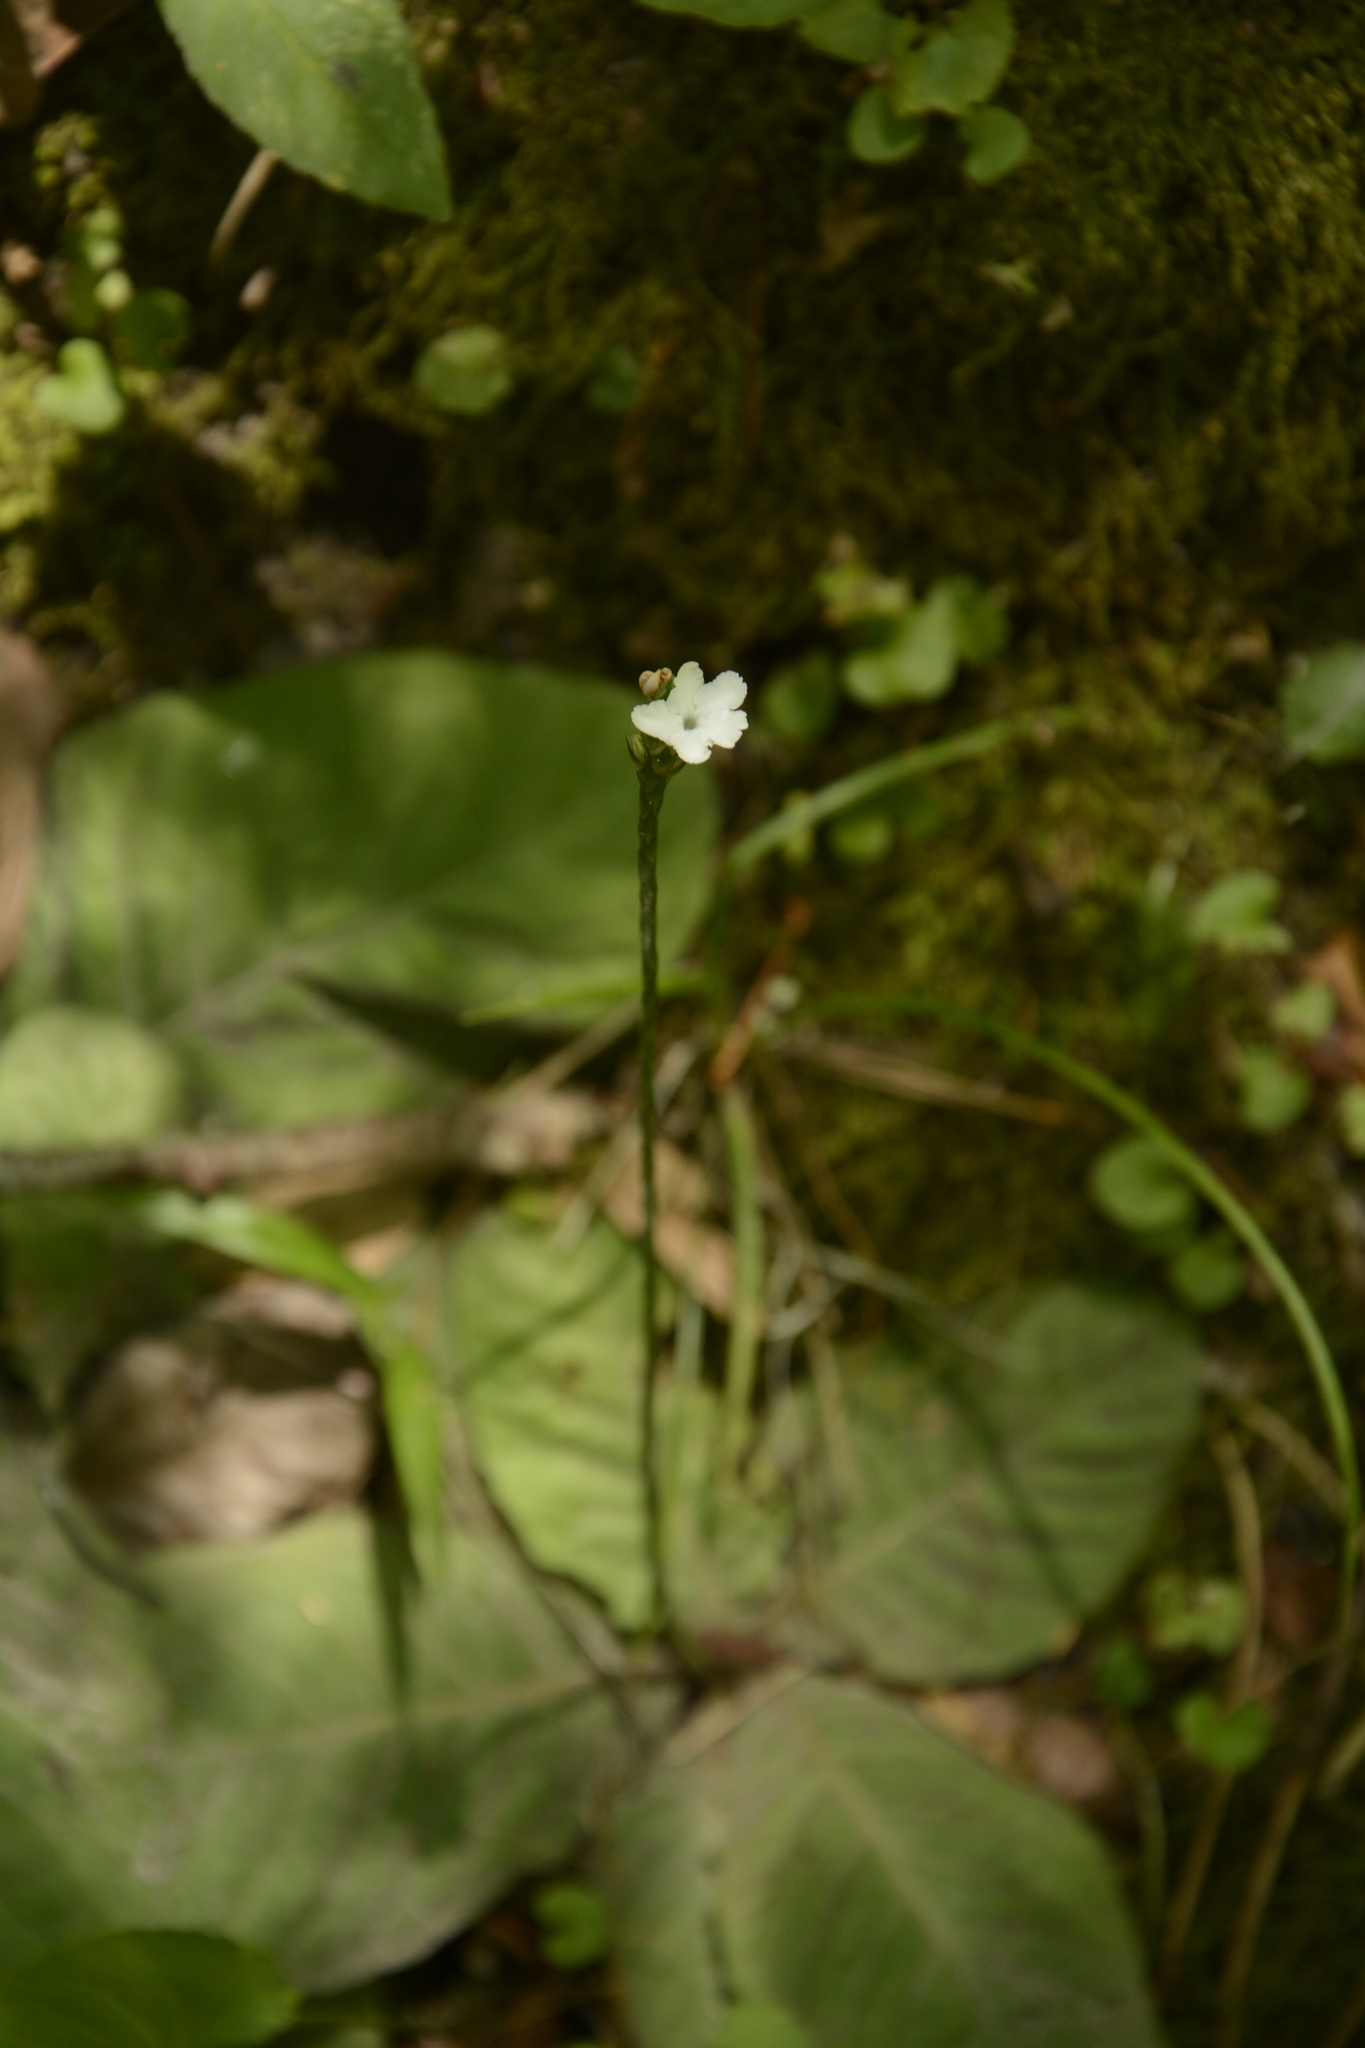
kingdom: Plantae
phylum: Tracheophyta
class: Magnoliopsida
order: Lamiales
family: Acanthaceae
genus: Elytraria
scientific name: Elytraria caroliniensis
